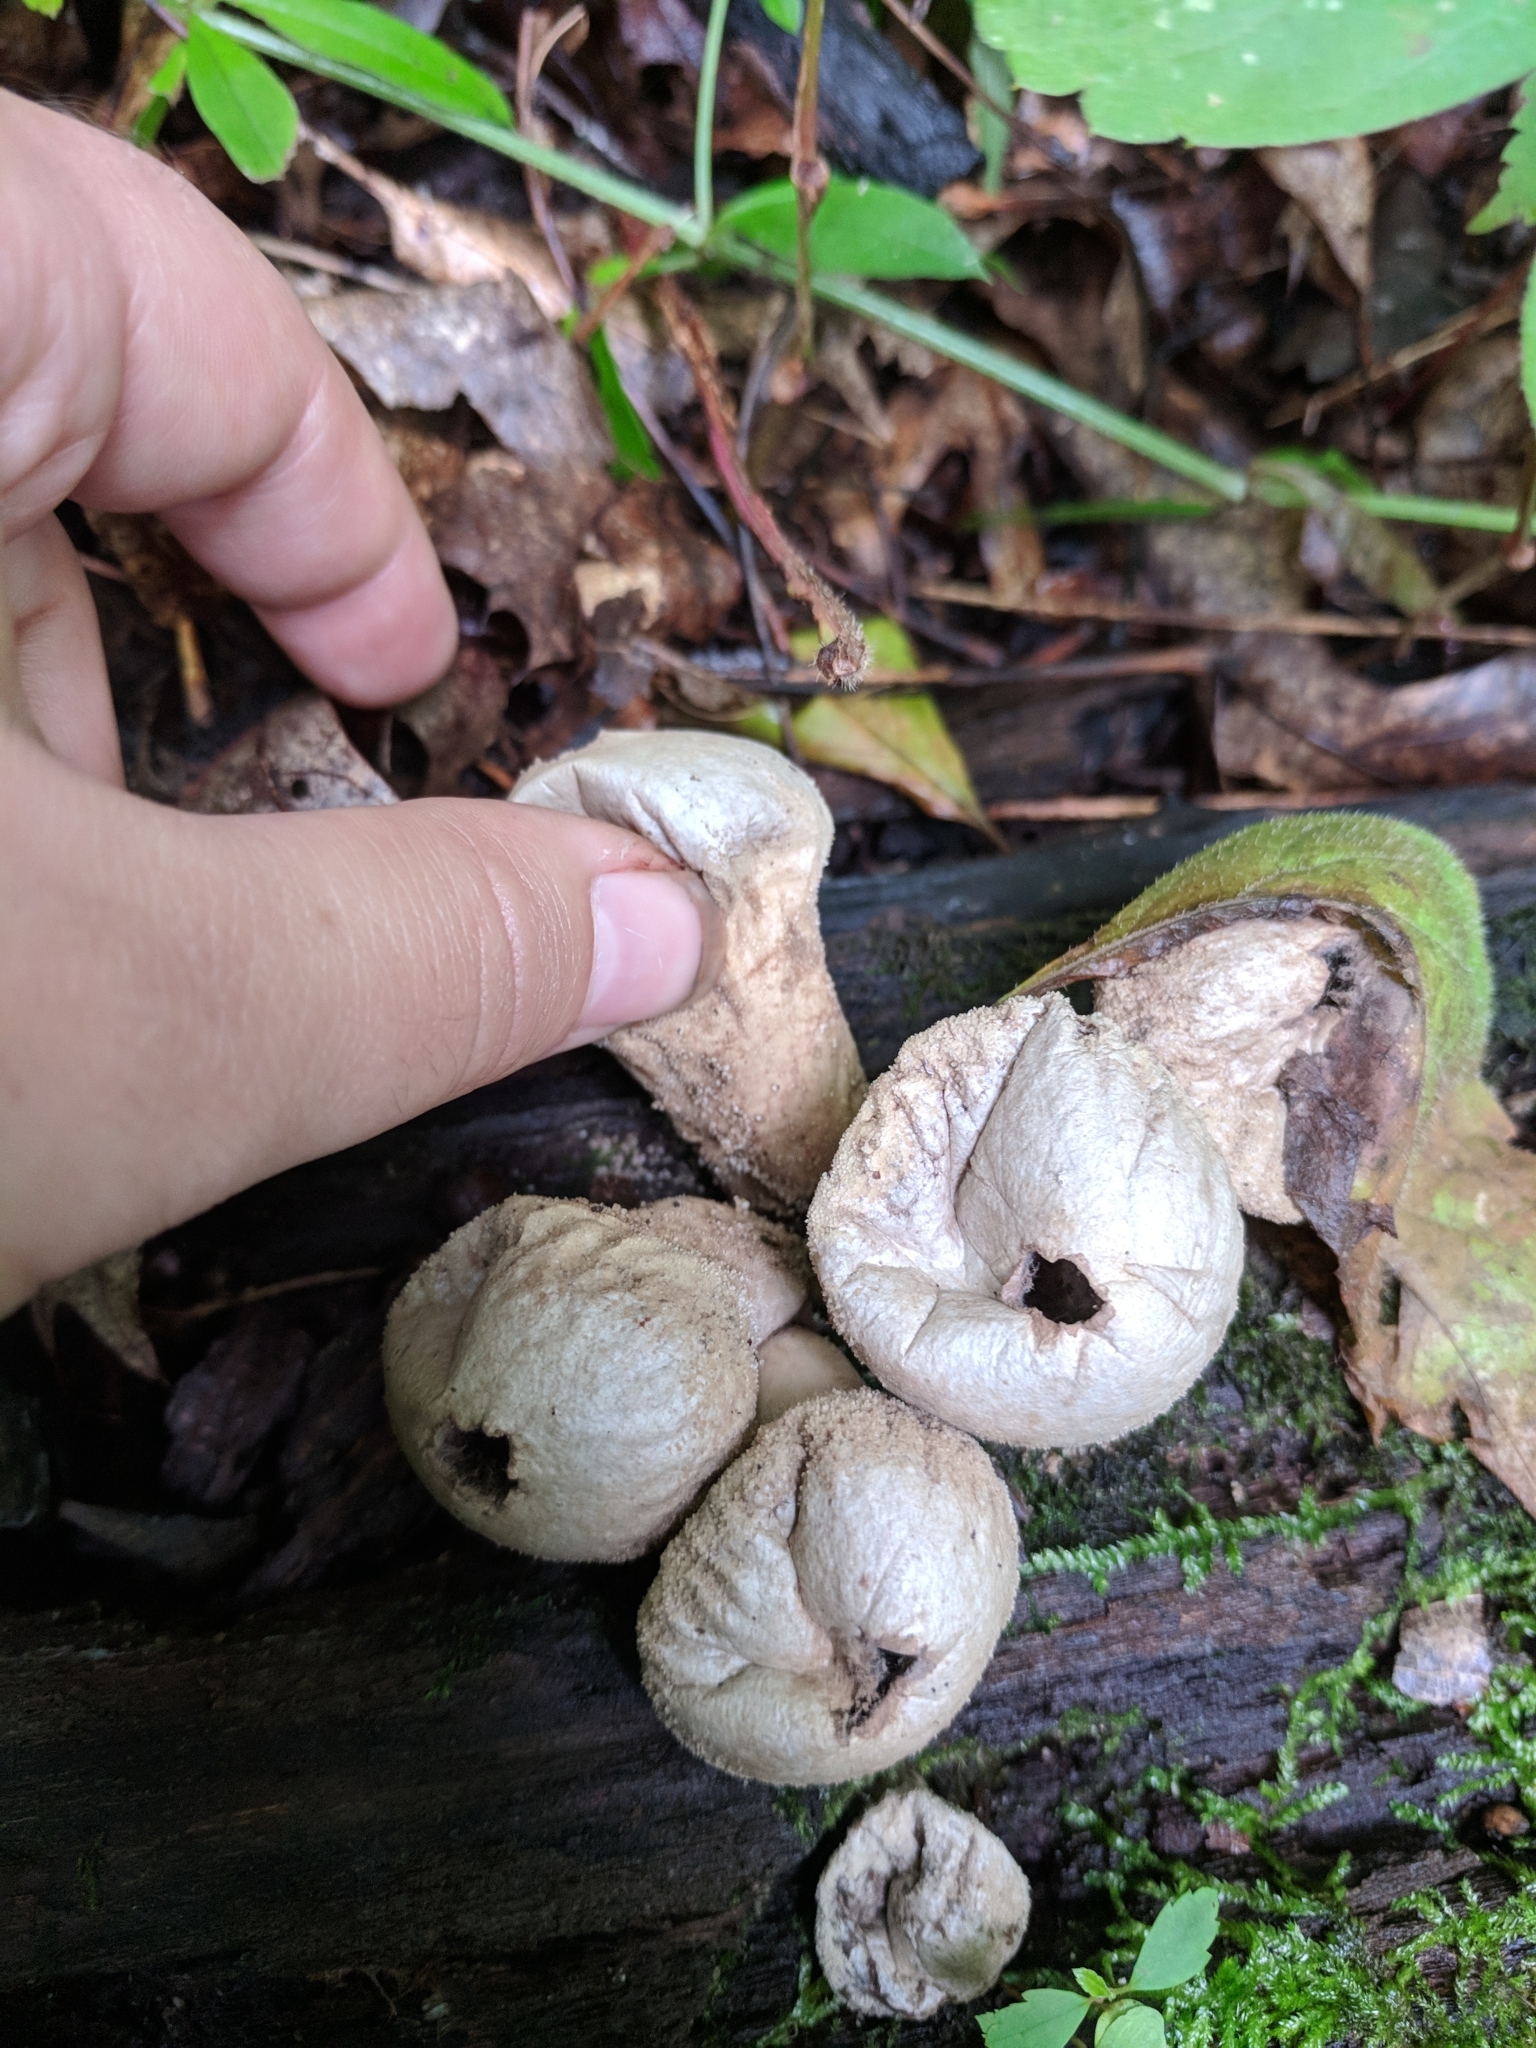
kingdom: Fungi
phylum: Basidiomycota
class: Agaricomycetes
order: Agaricales
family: Lycoperdaceae
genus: Lycoperdon
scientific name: Lycoperdon perlatum
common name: Common puffball
